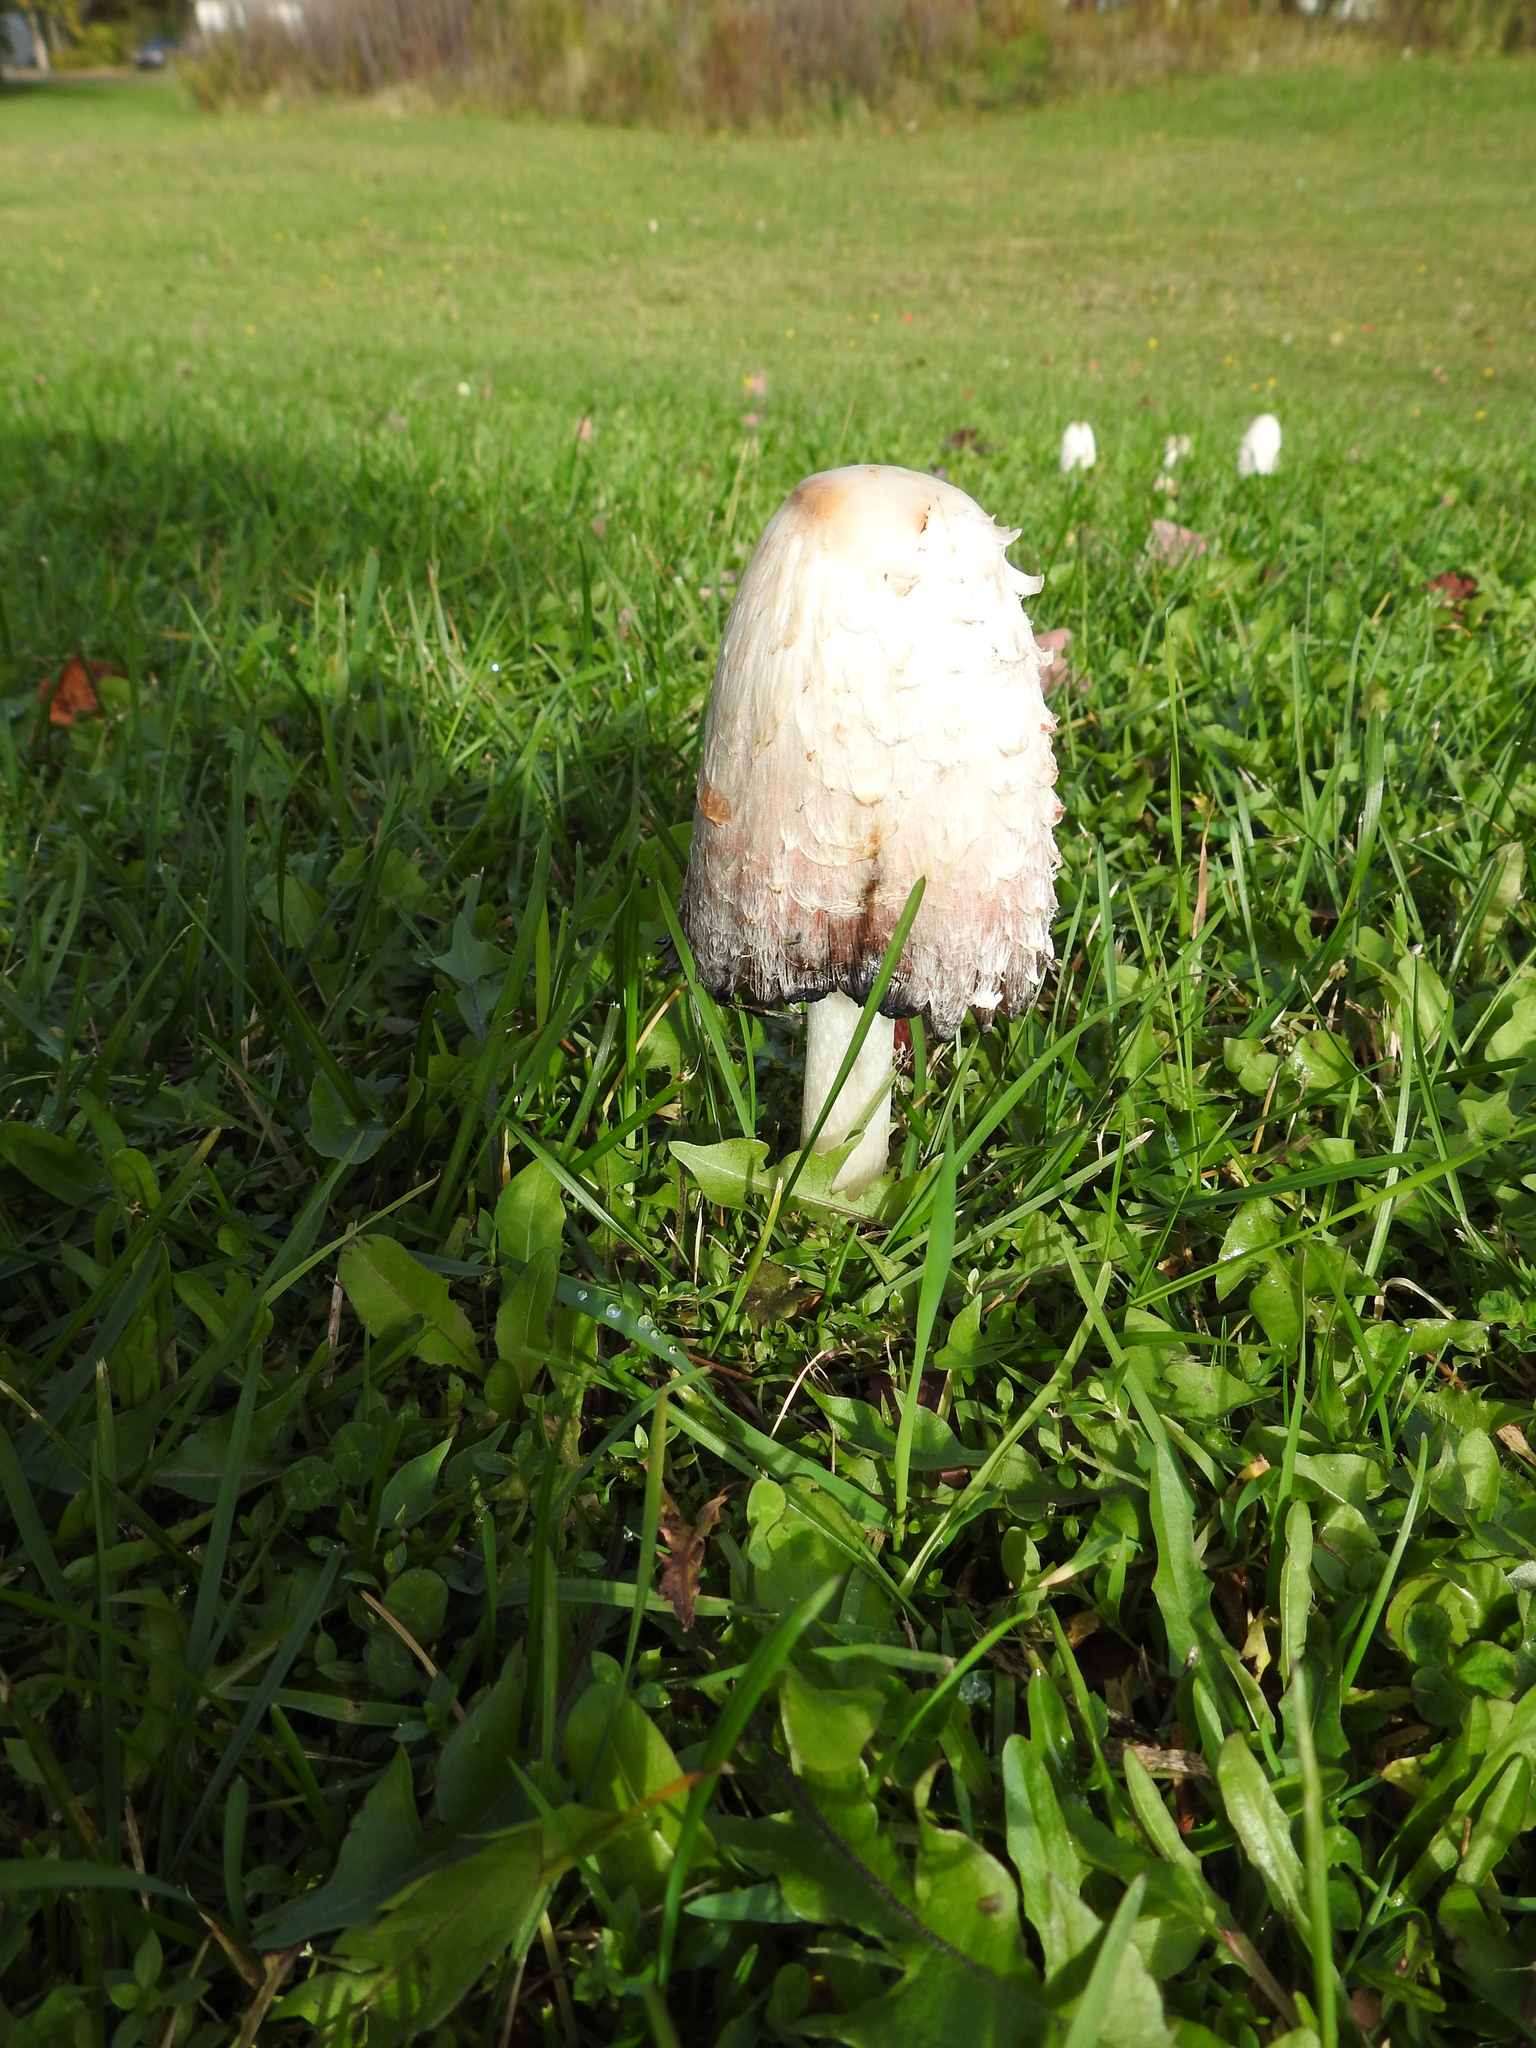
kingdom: Fungi
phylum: Basidiomycota
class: Agaricomycetes
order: Agaricales
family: Agaricaceae
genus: Coprinus
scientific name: Coprinus comatus
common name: Lawyer's wig
